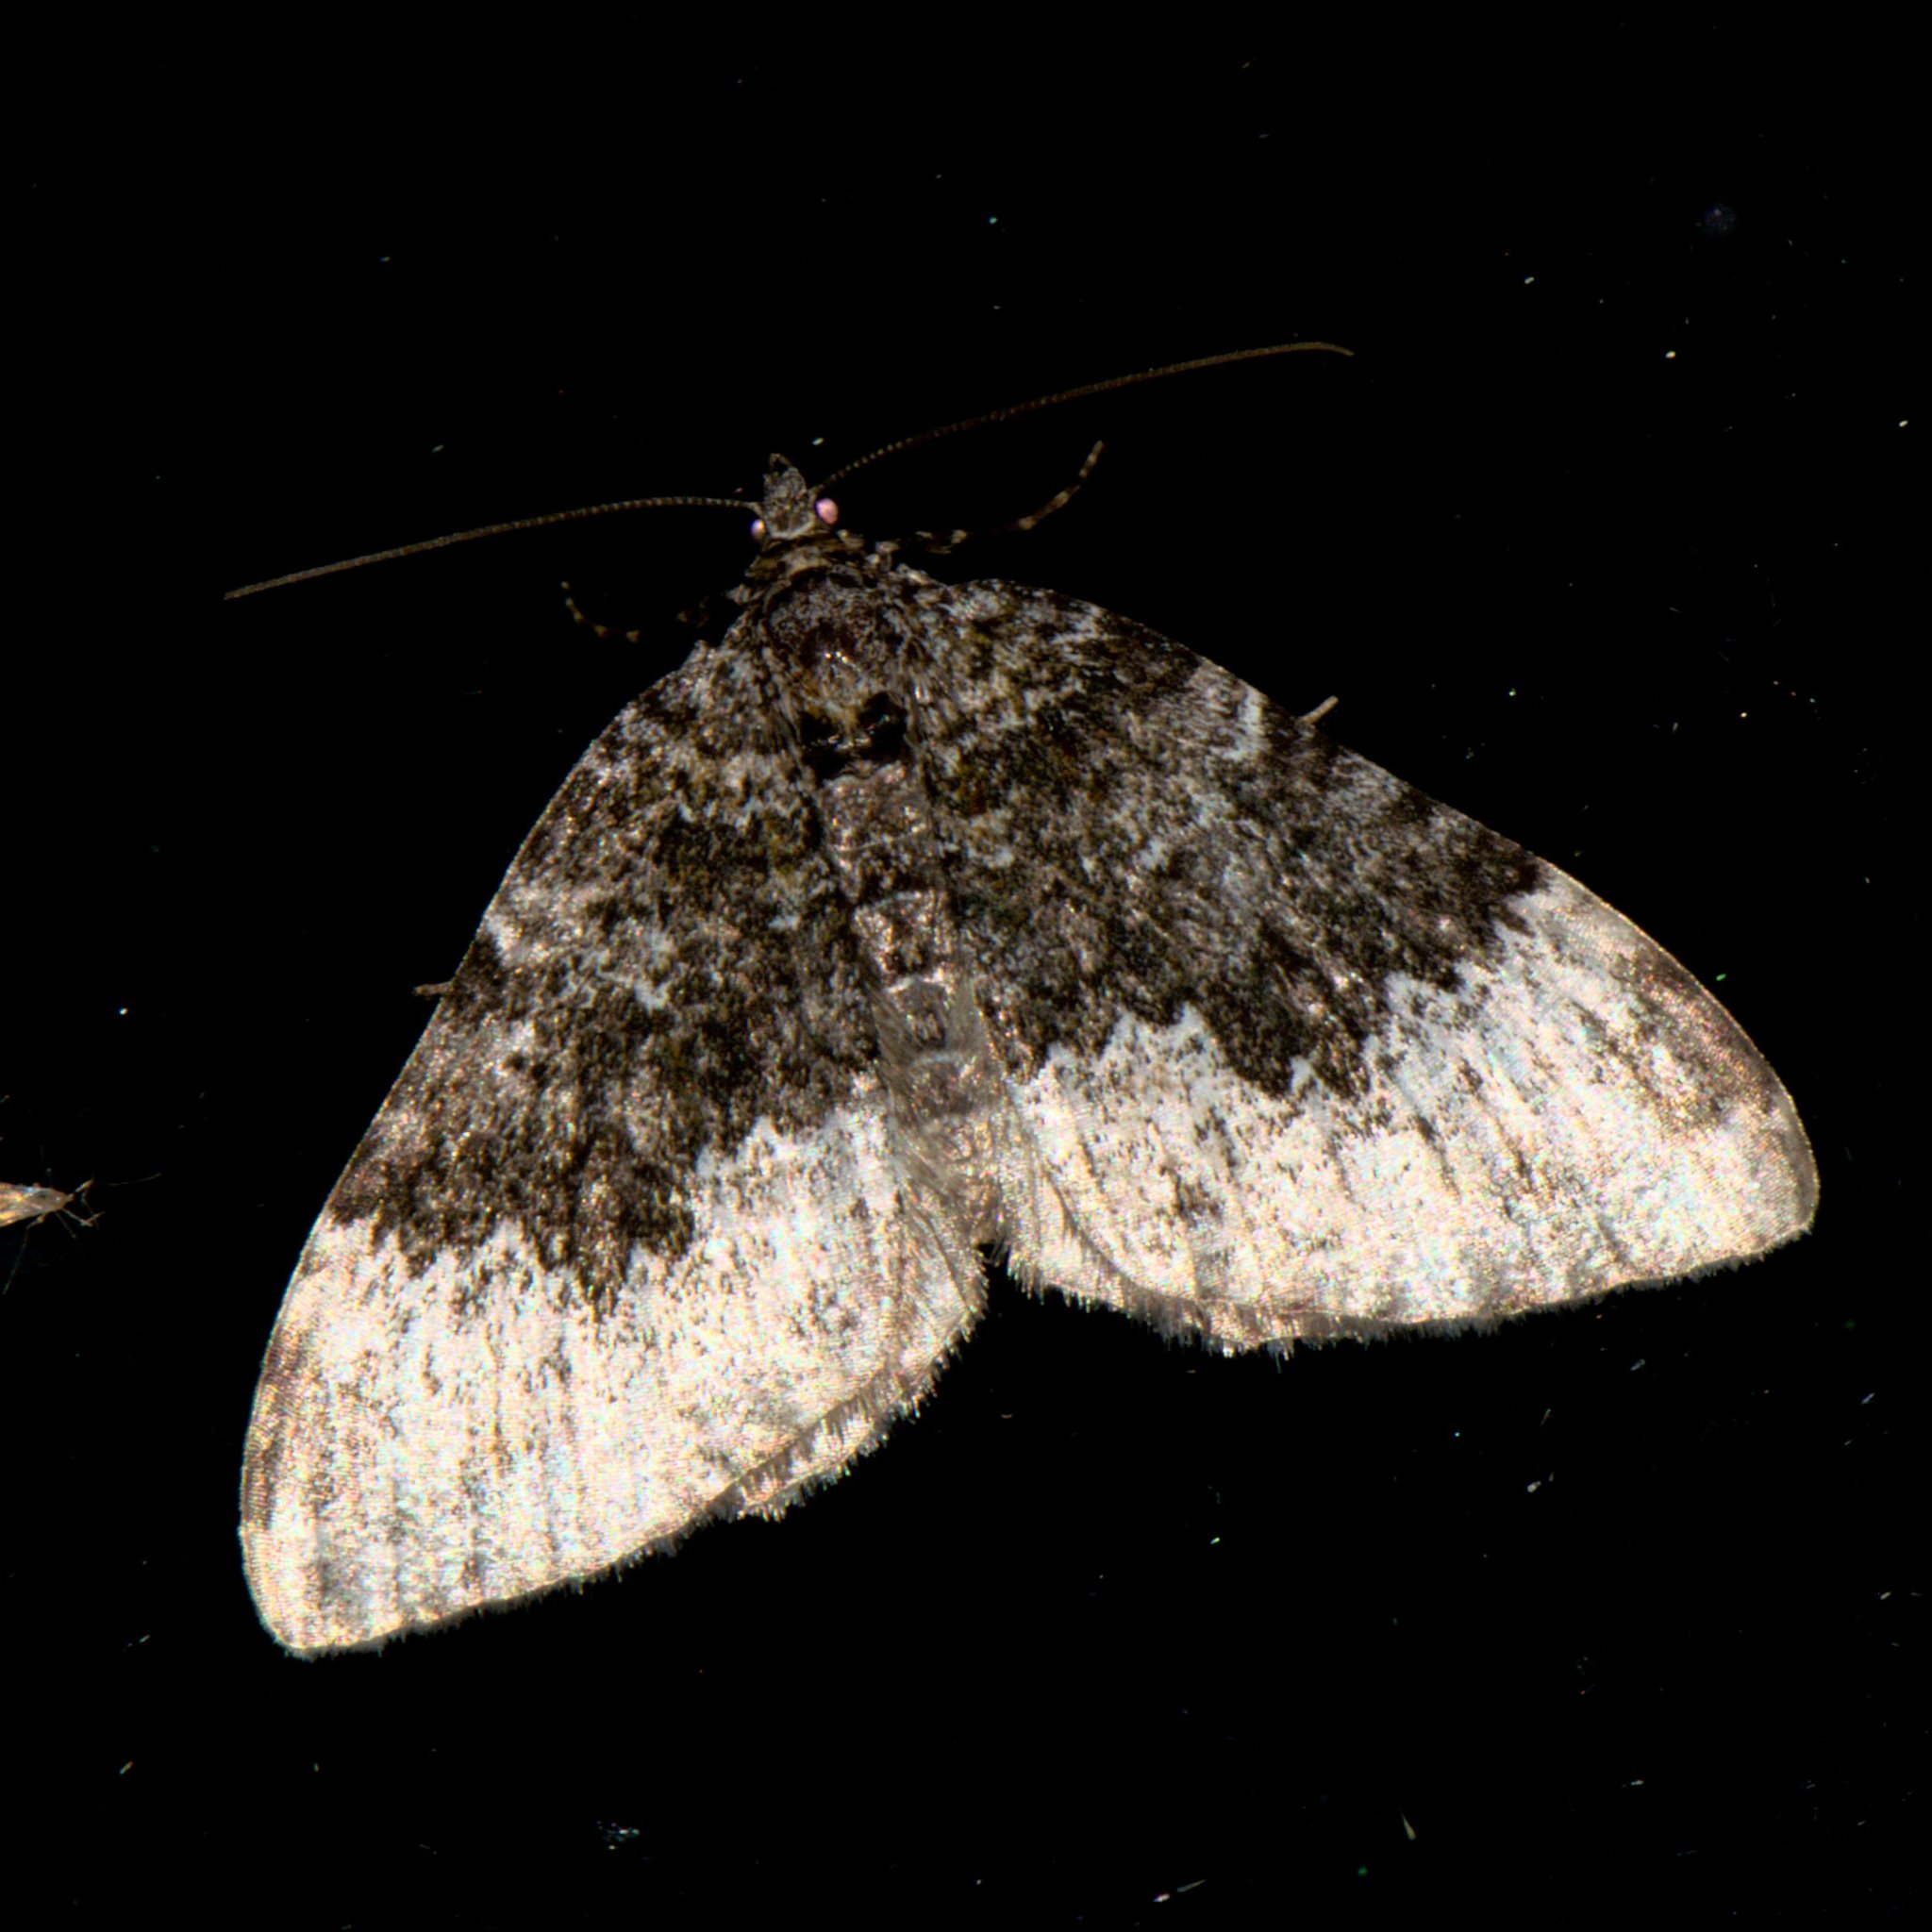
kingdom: Animalia
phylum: Arthropoda
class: Insecta
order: Lepidoptera
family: Geometridae
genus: Euphyia
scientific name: Euphyia ochreata
